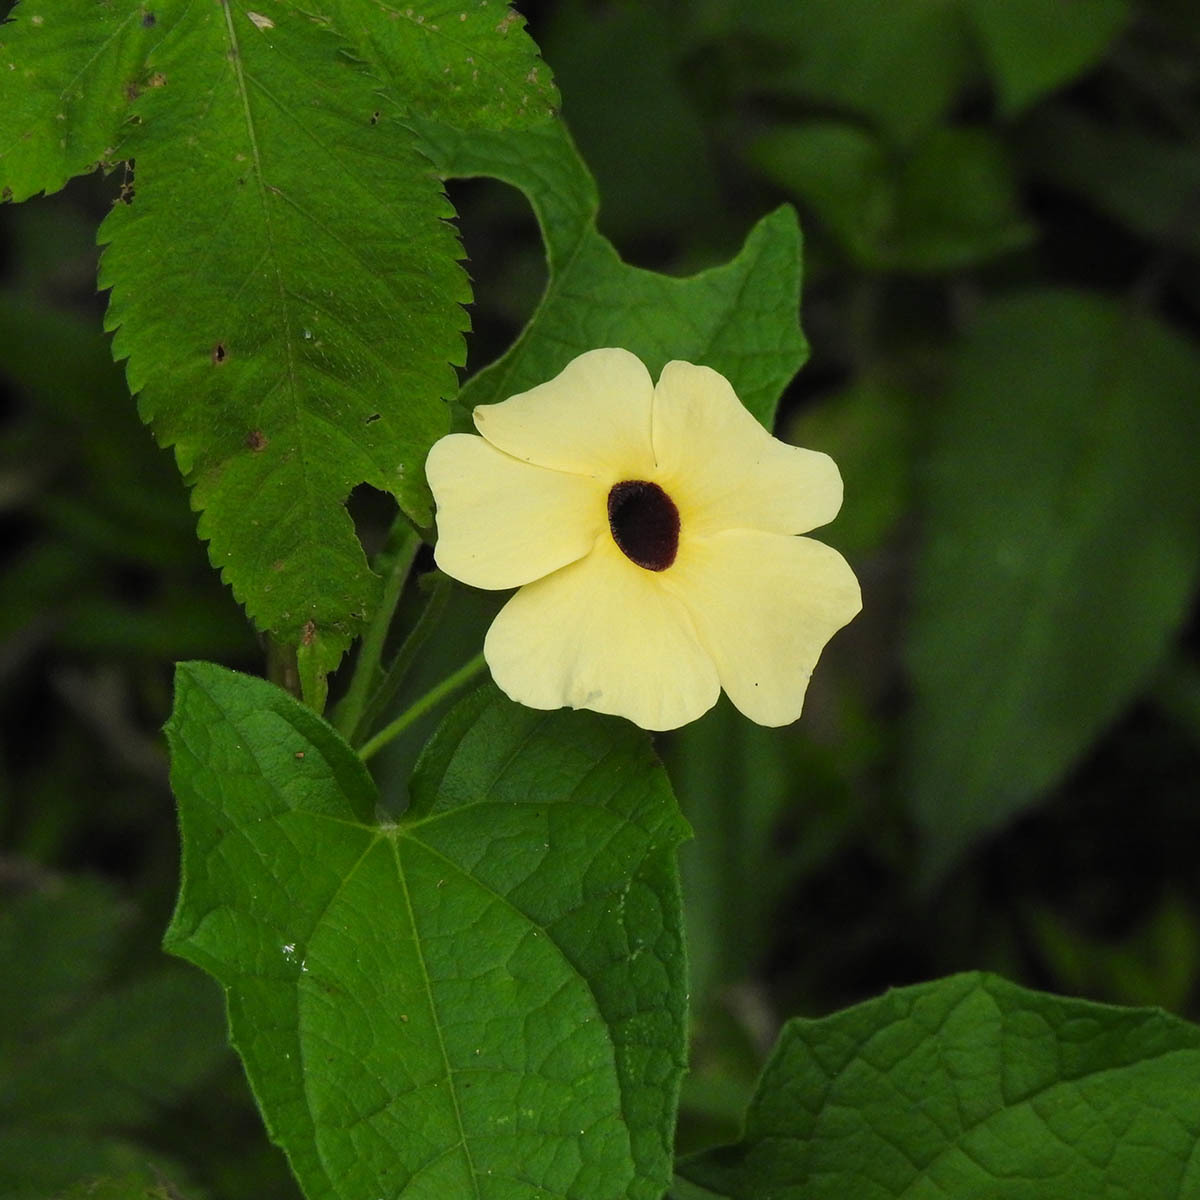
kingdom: Plantae
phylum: Tracheophyta
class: Magnoliopsida
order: Lamiales
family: Acanthaceae
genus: Thunbergia
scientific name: Thunbergia alata
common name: Blackeyed susan vine
